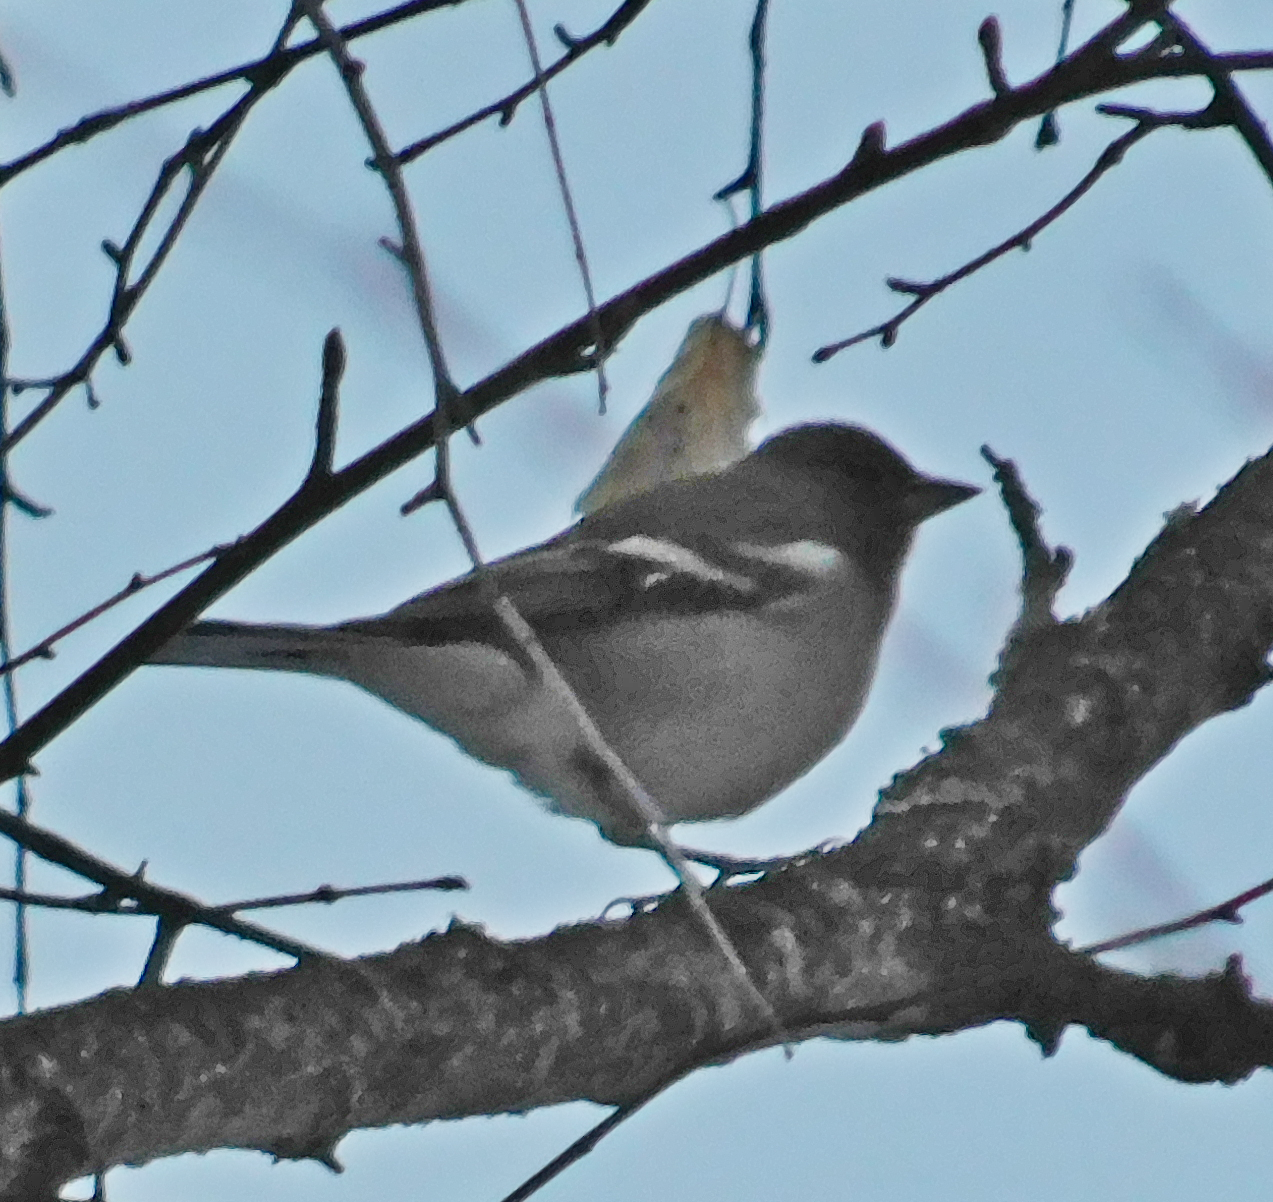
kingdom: Animalia
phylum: Chordata
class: Aves
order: Passeriformes
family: Fringillidae
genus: Fringilla
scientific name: Fringilla coelebs
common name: Common chaffinch
